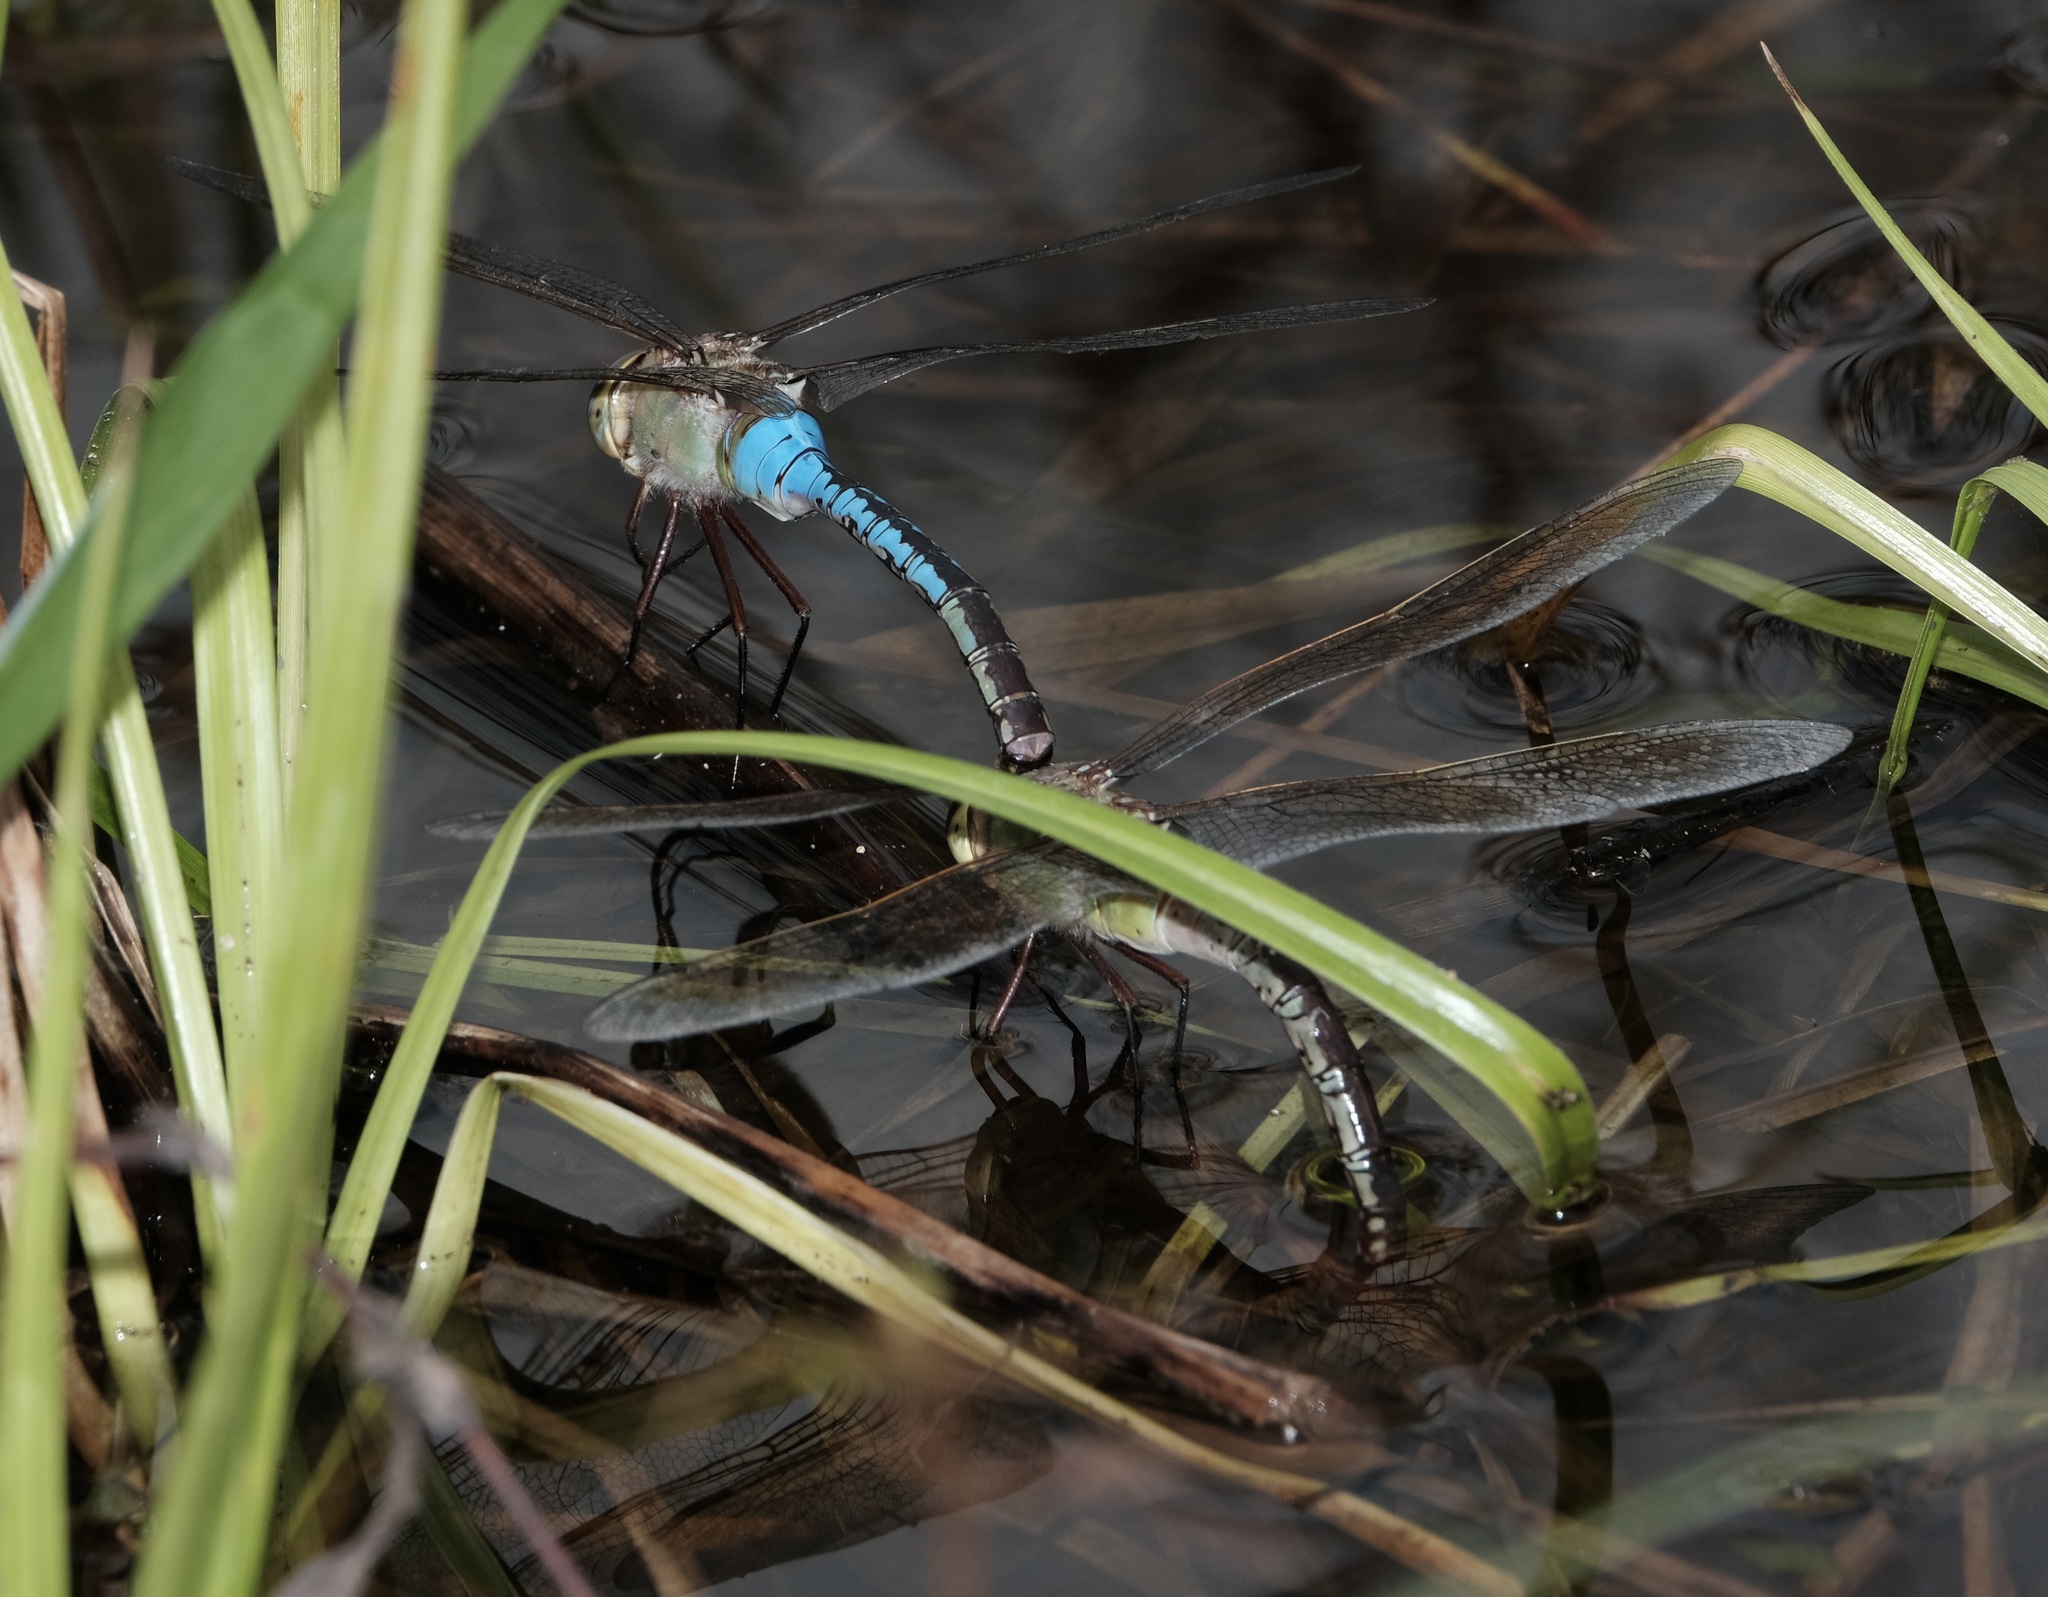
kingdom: Animalia
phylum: Arthropoda
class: Insecta
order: Odonata
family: Aeshnidae
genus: Anax
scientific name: Anax junius
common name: Common green darner
